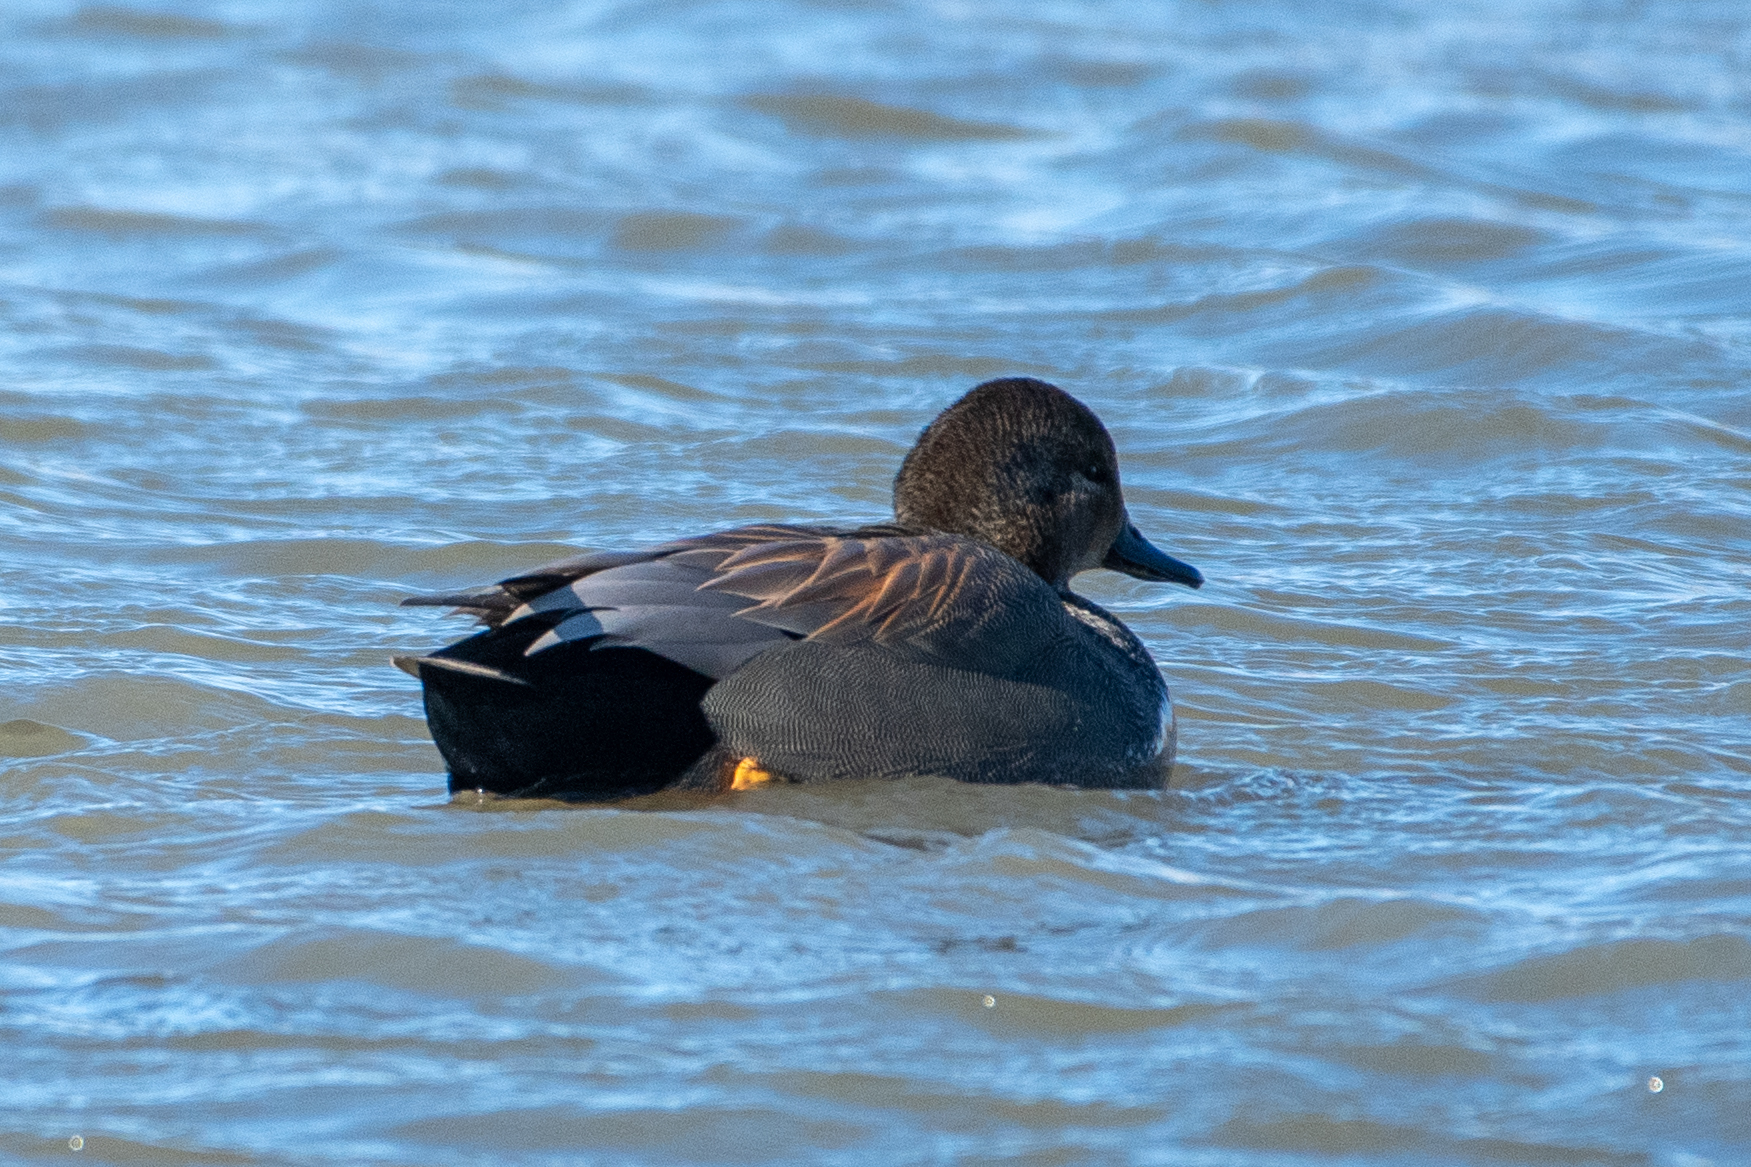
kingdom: Animalia
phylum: Chordata
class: Aves
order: Anseriformes
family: Anatidae
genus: Mareca
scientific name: Mareca strepera
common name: Gadwall
